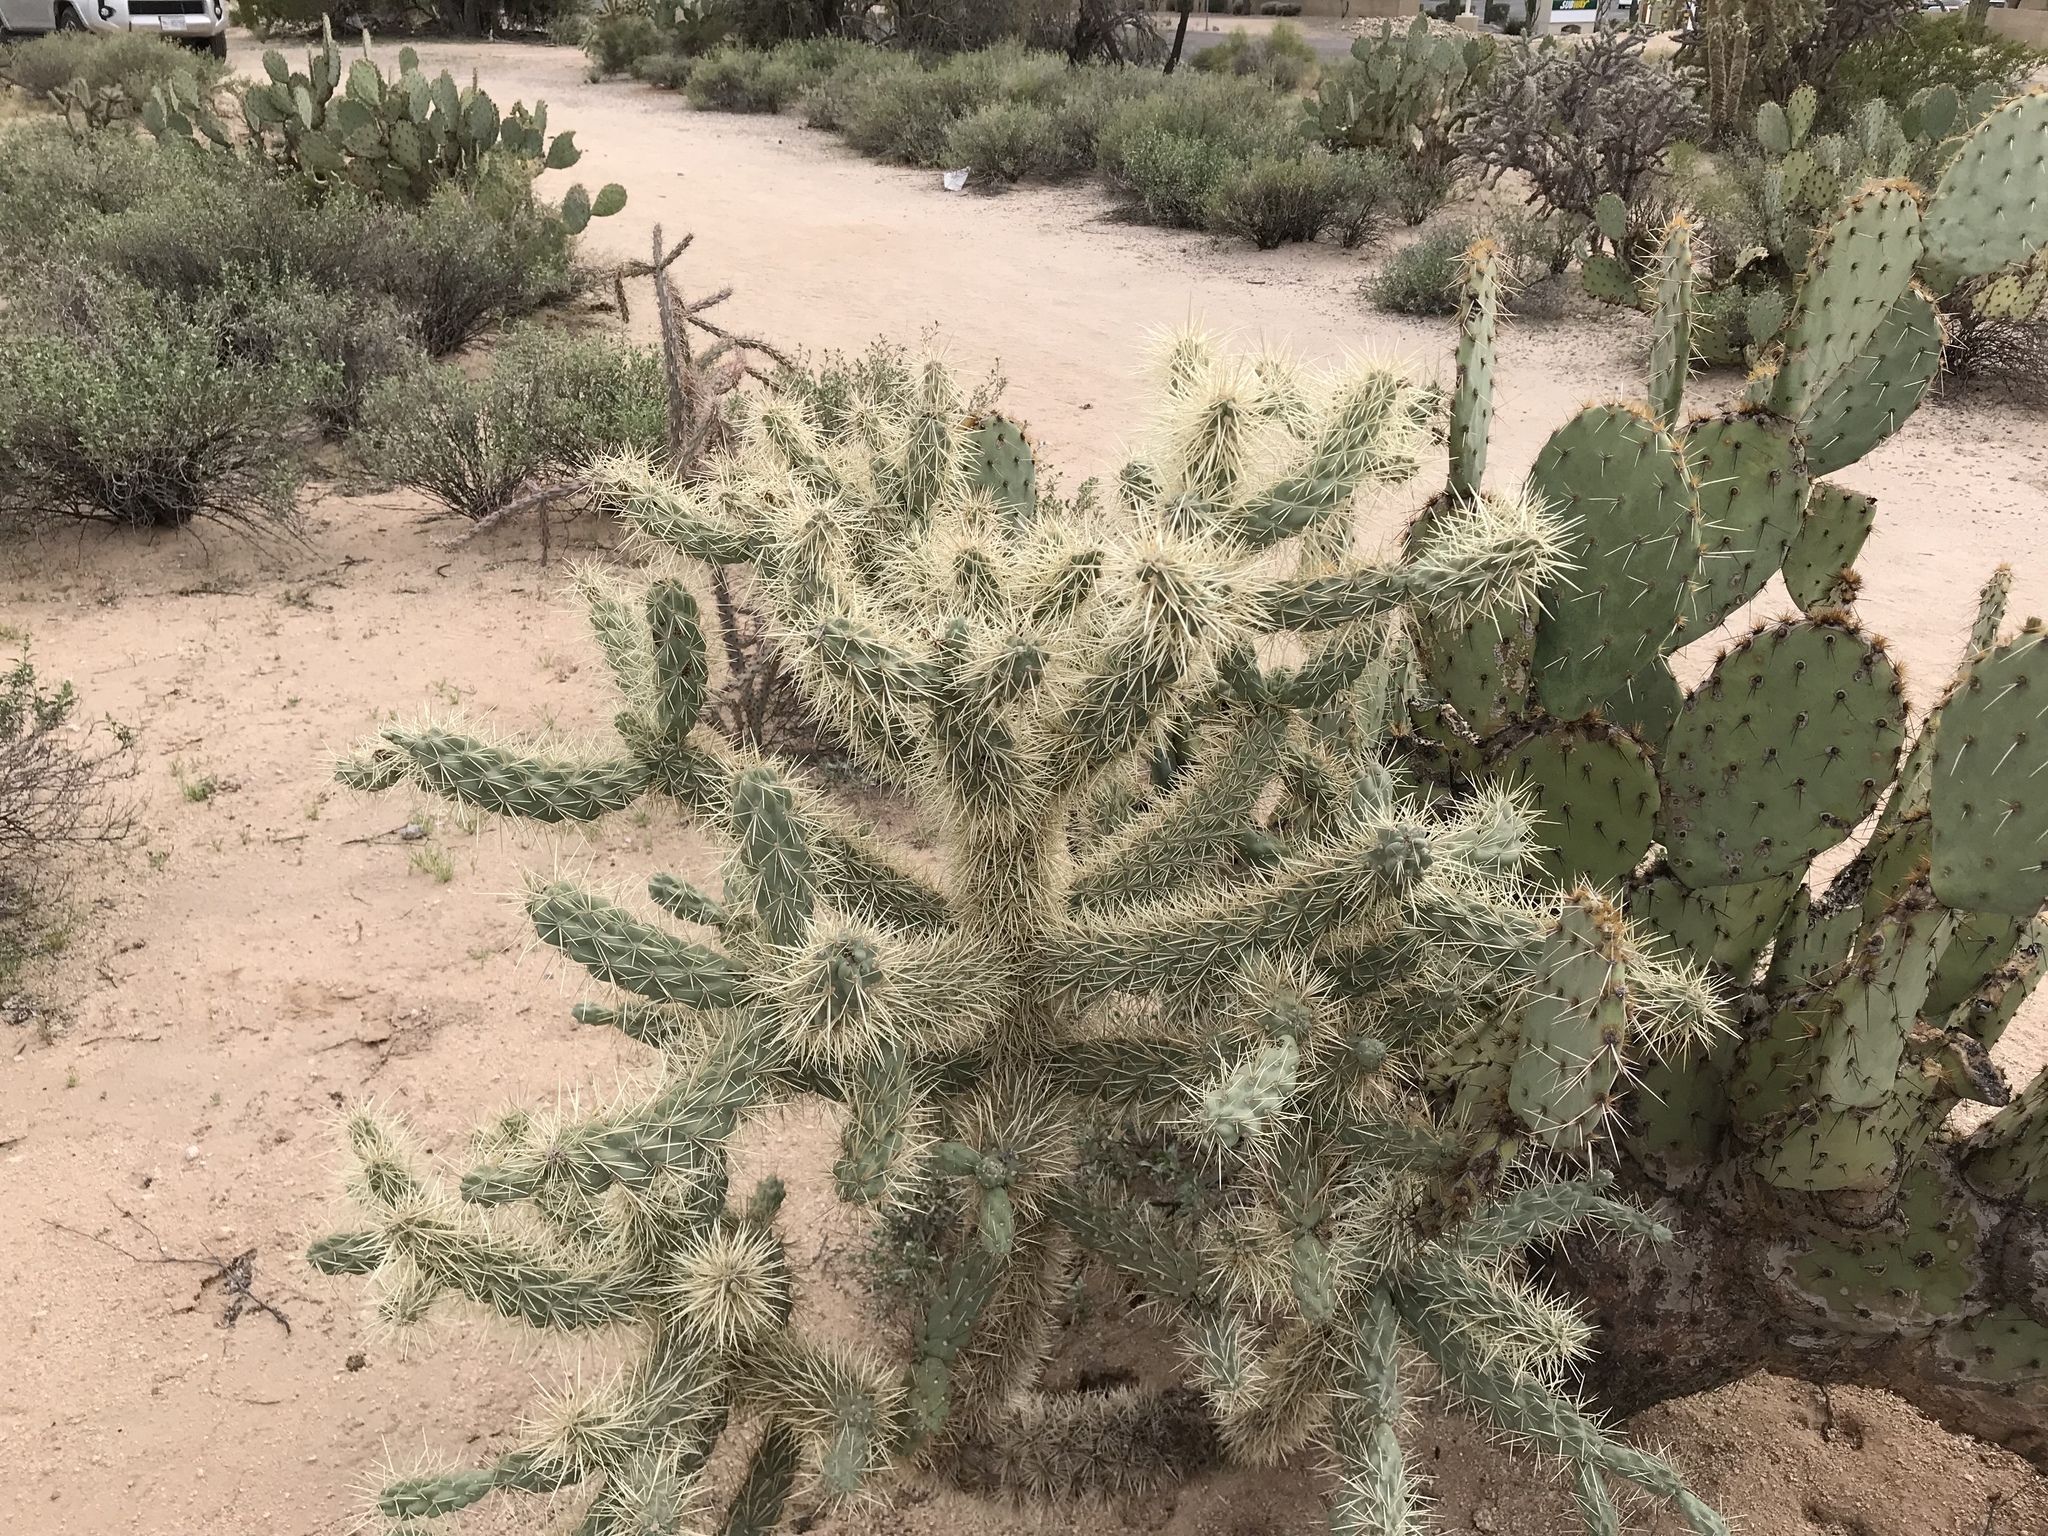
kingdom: Plantae
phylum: Tracheophyta
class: Magnoliopsida
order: Caryophyllales
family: Cactaceae
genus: Cylindropuntia
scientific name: Cylindropuntia fulgida
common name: Jumping cholla
